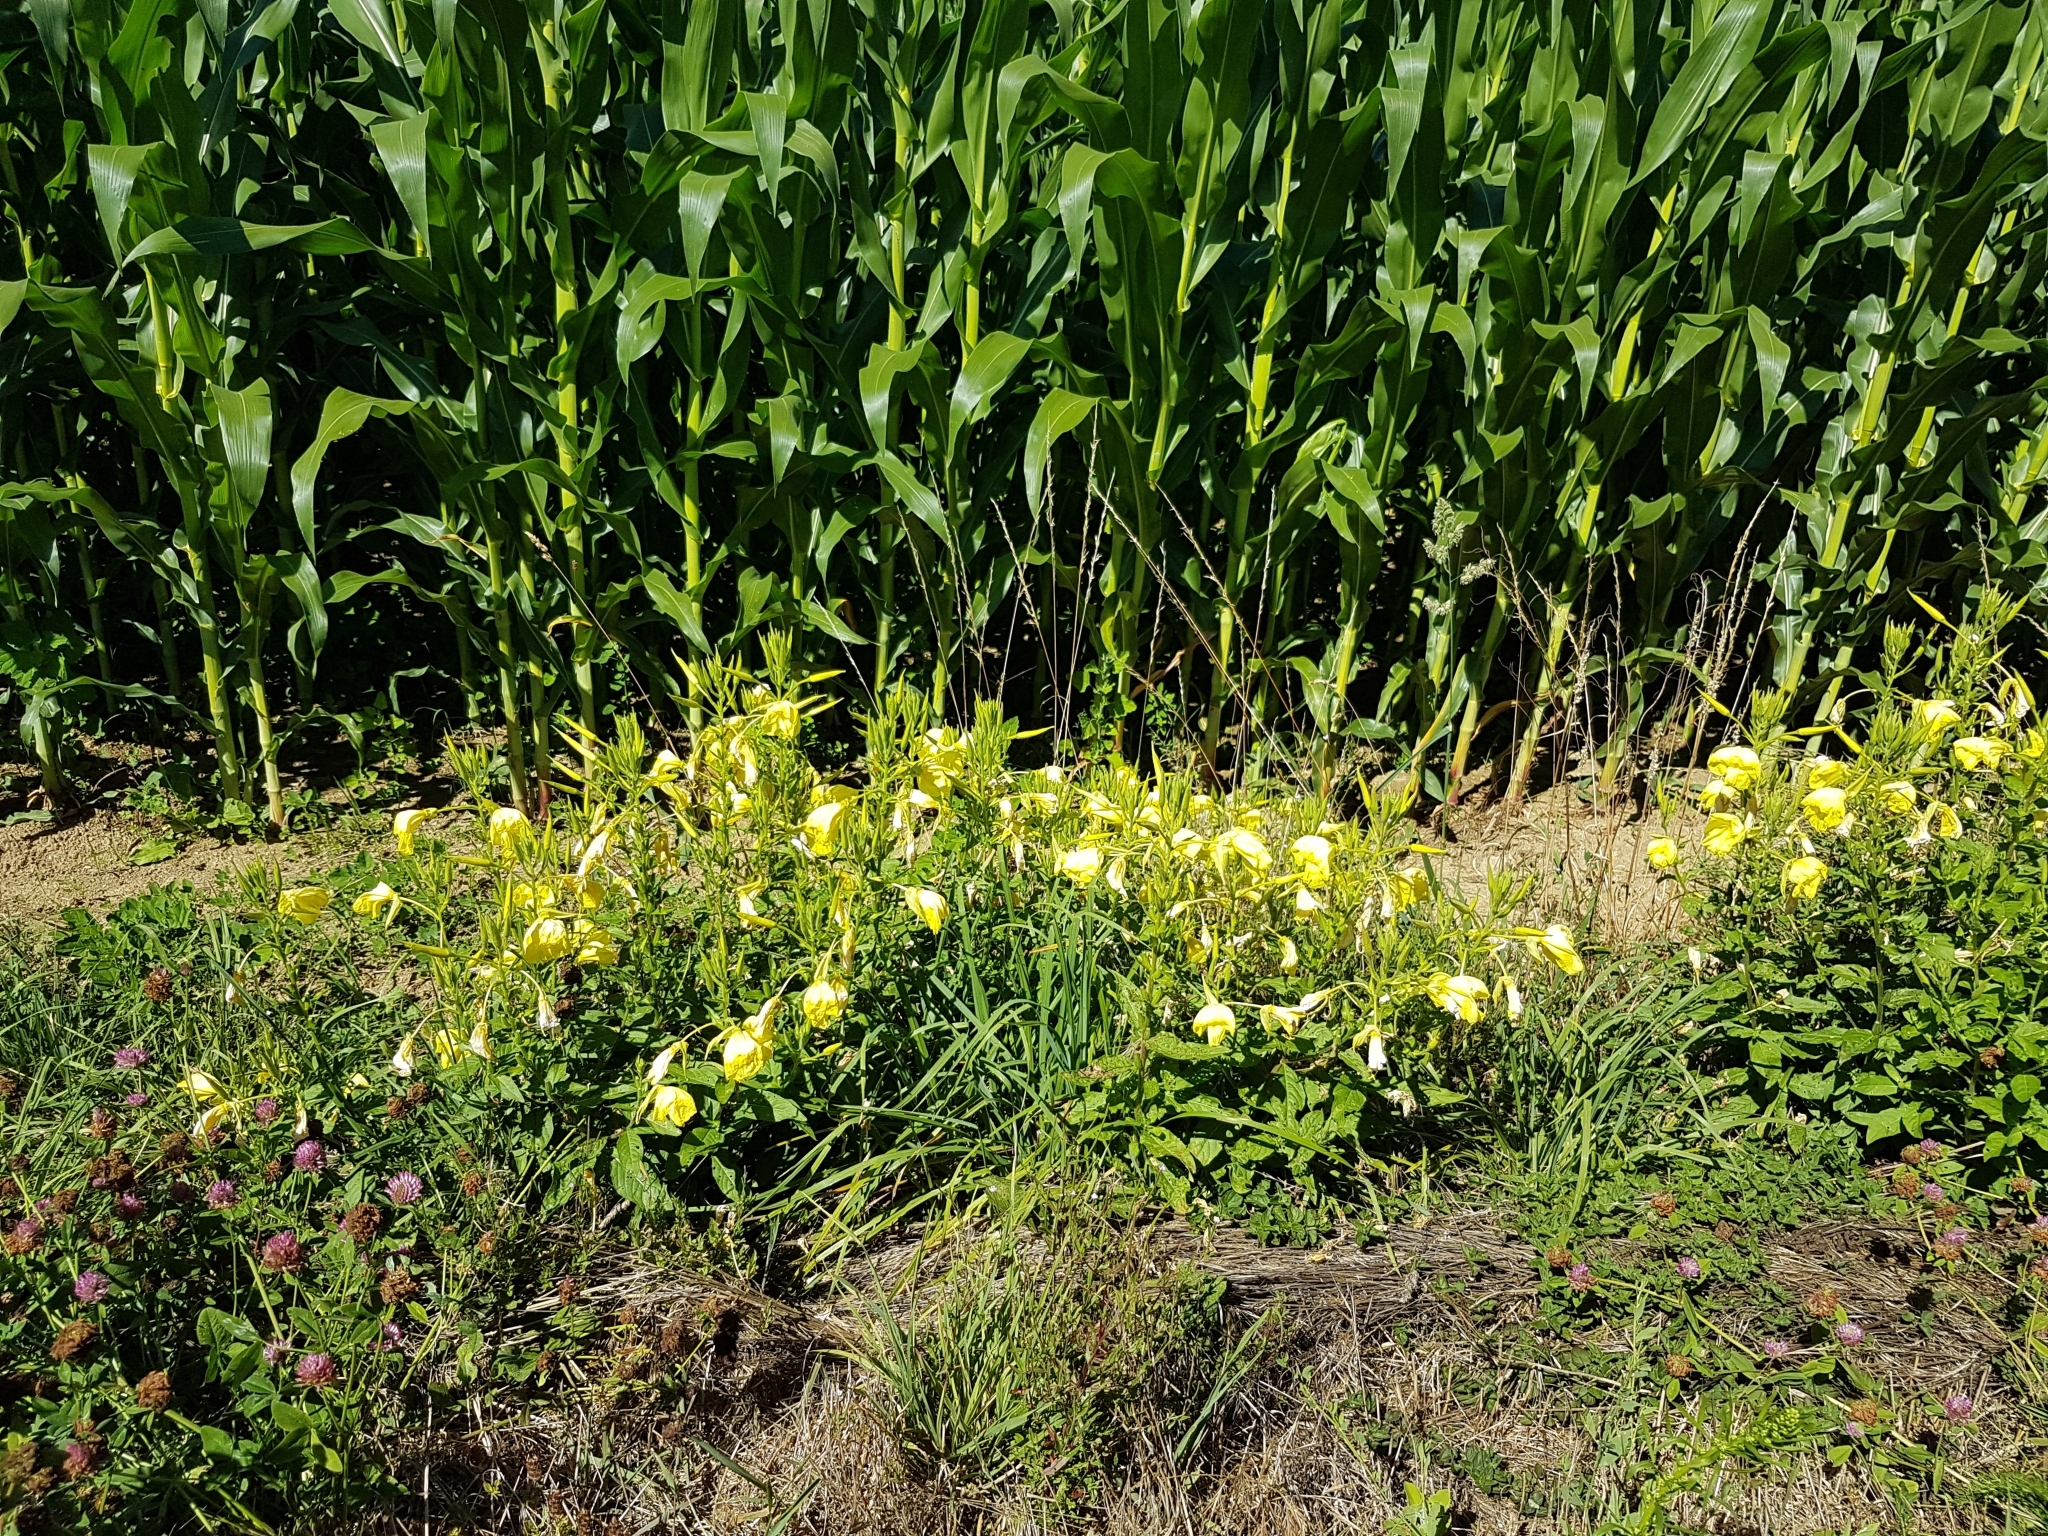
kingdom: Plantae
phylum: Tracheophyta
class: Magnoliopsida
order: Myrtales
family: Onagraceae
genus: Oenothera
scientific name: Oenothera glazioviana
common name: Large-flowered evening-primrose
